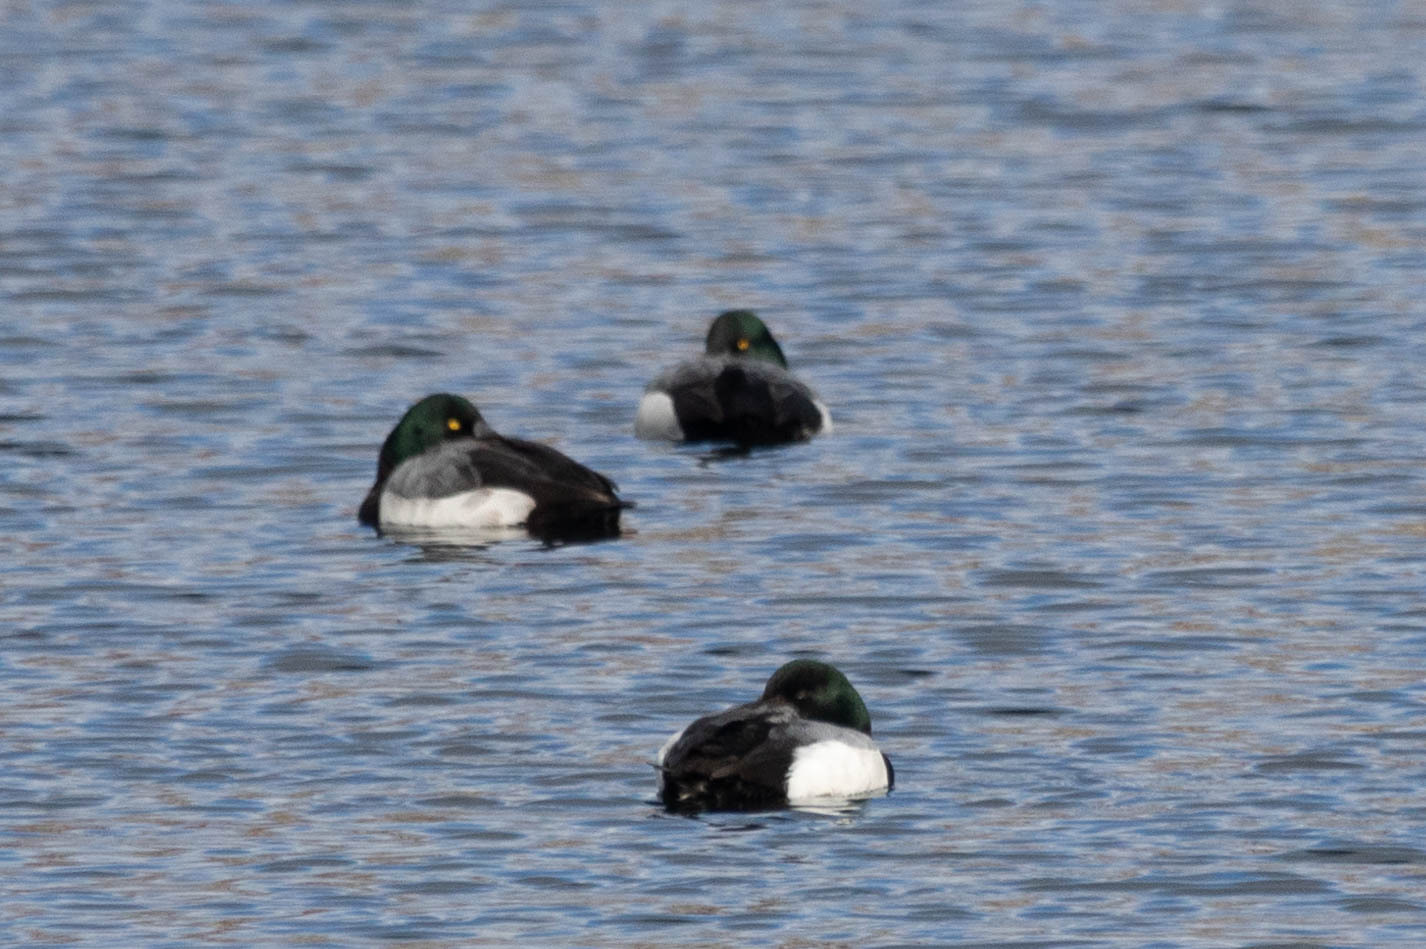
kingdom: Animalia
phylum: Chordata
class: Aves
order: Anseriformes
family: Anatidae
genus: Aythya
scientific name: Aythya marila
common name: Greater scaup
